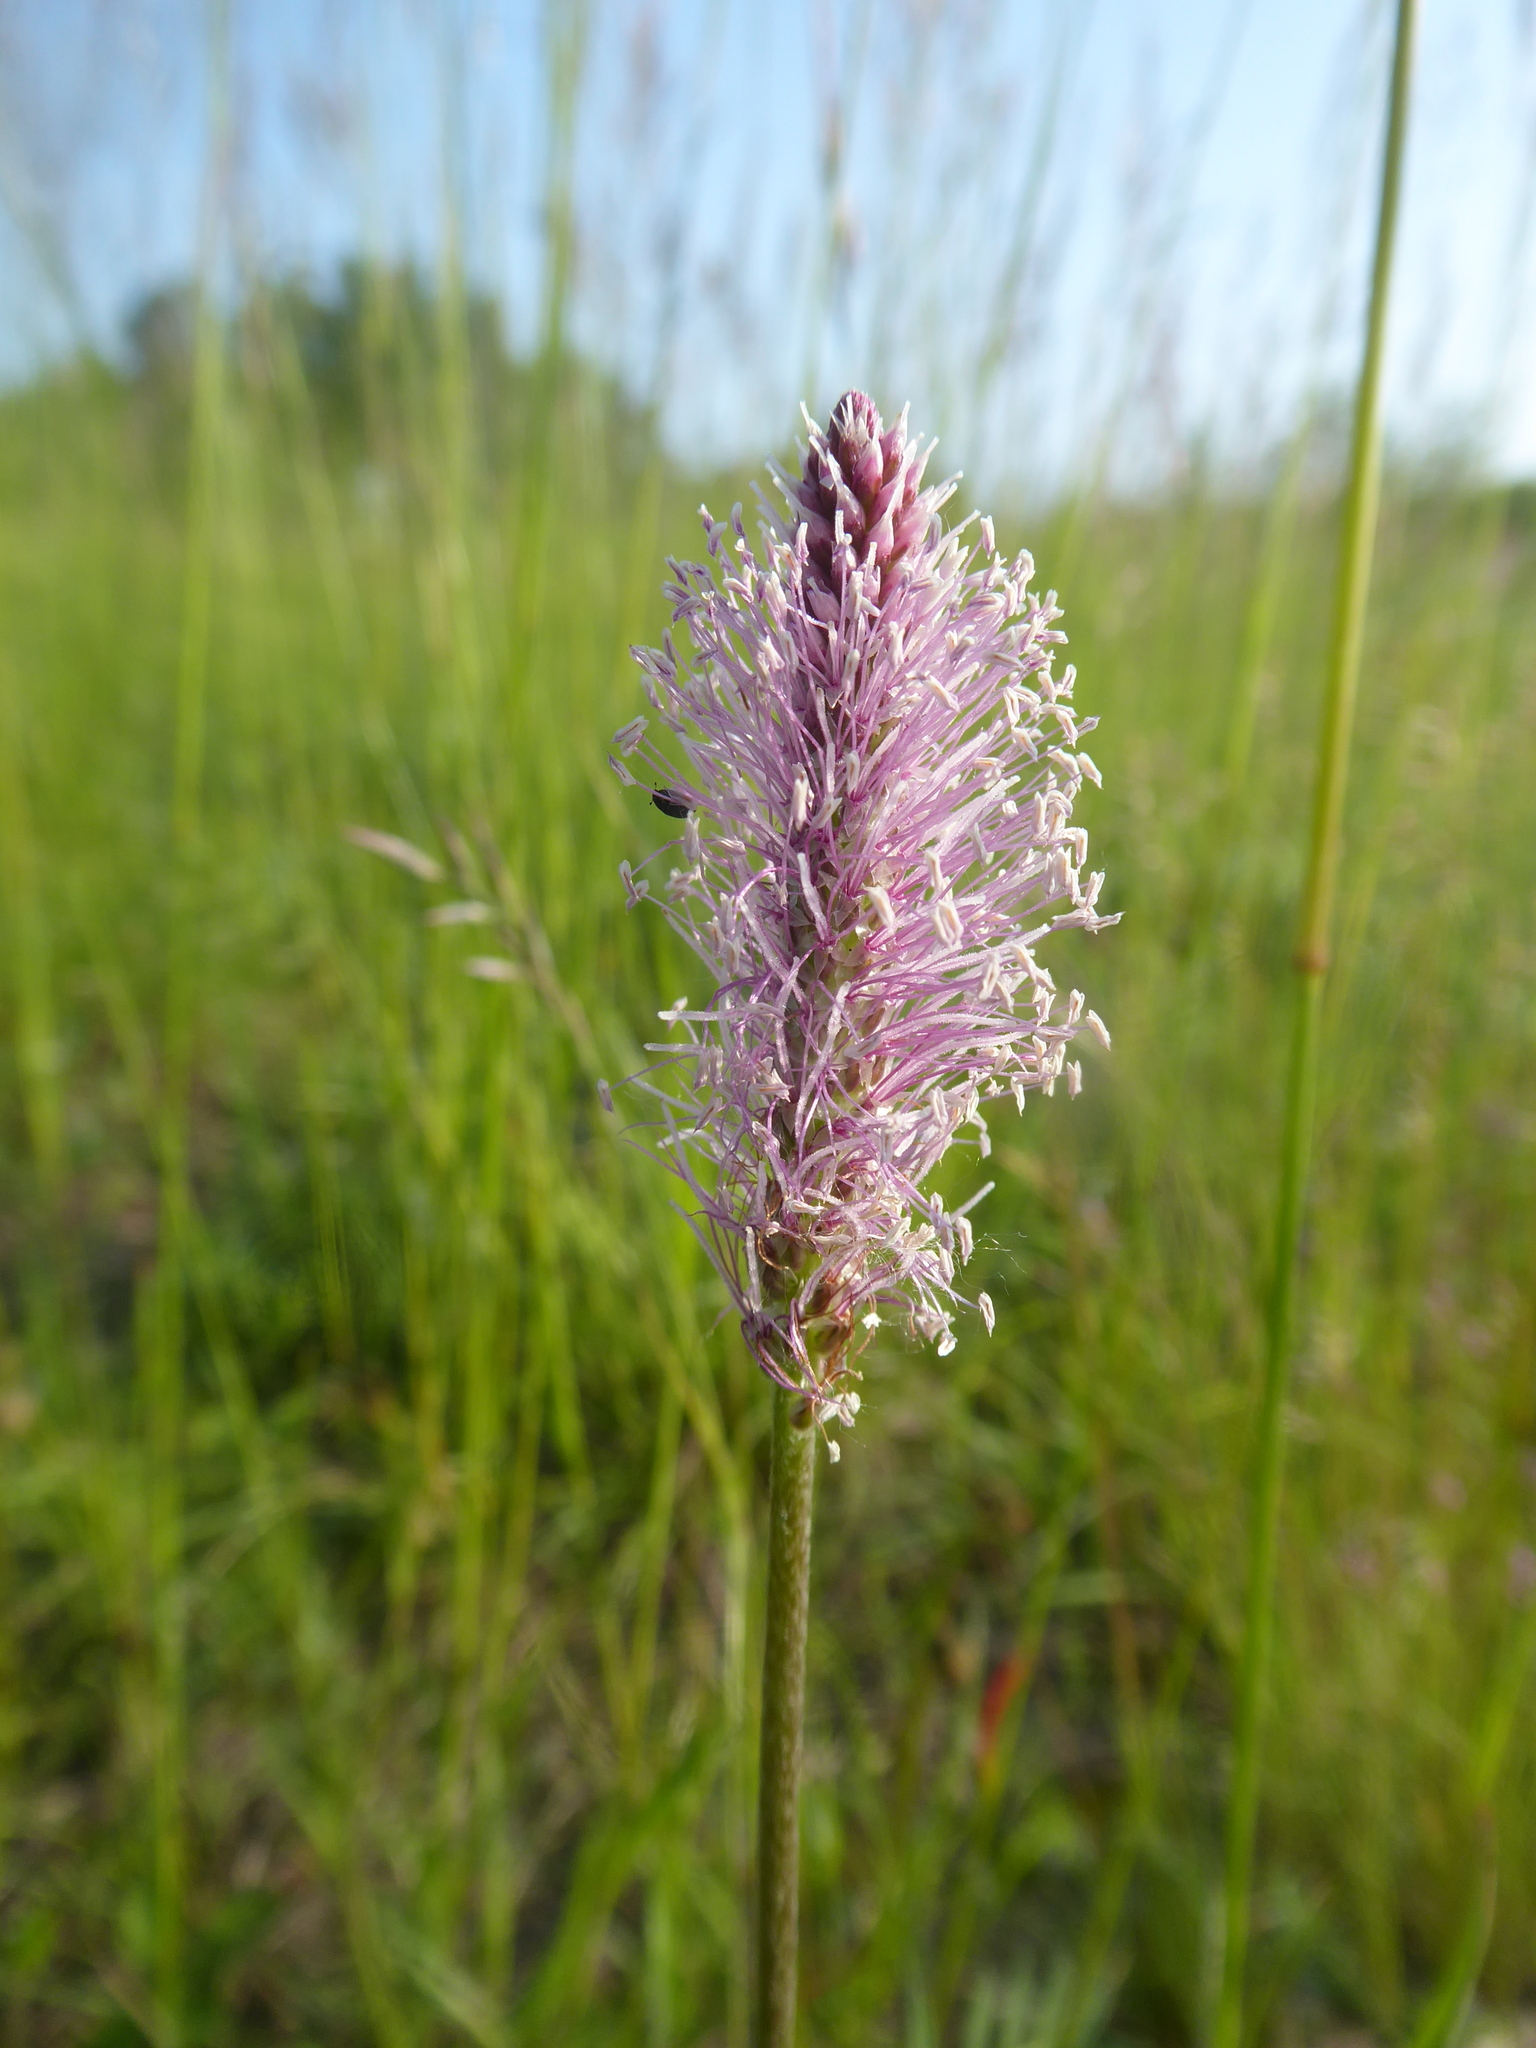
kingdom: Plantae
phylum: Tracheophyta
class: Magnoliopsida
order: Lamiales
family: Plantaginaceae
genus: Plantago
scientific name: Plantago media
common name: Hoary plantain
